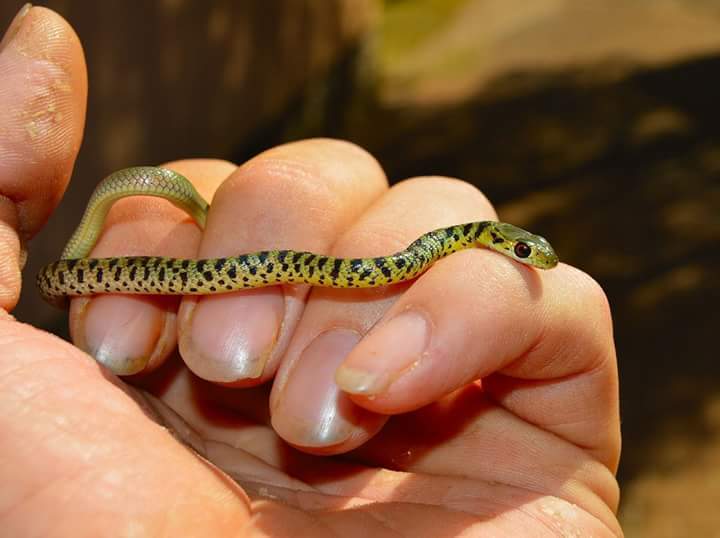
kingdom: Animalia
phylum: Chordata
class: Squamata
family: Colubridae
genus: Philothamnus
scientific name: Philothamnus semivariegatus
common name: Spotted bush snake
